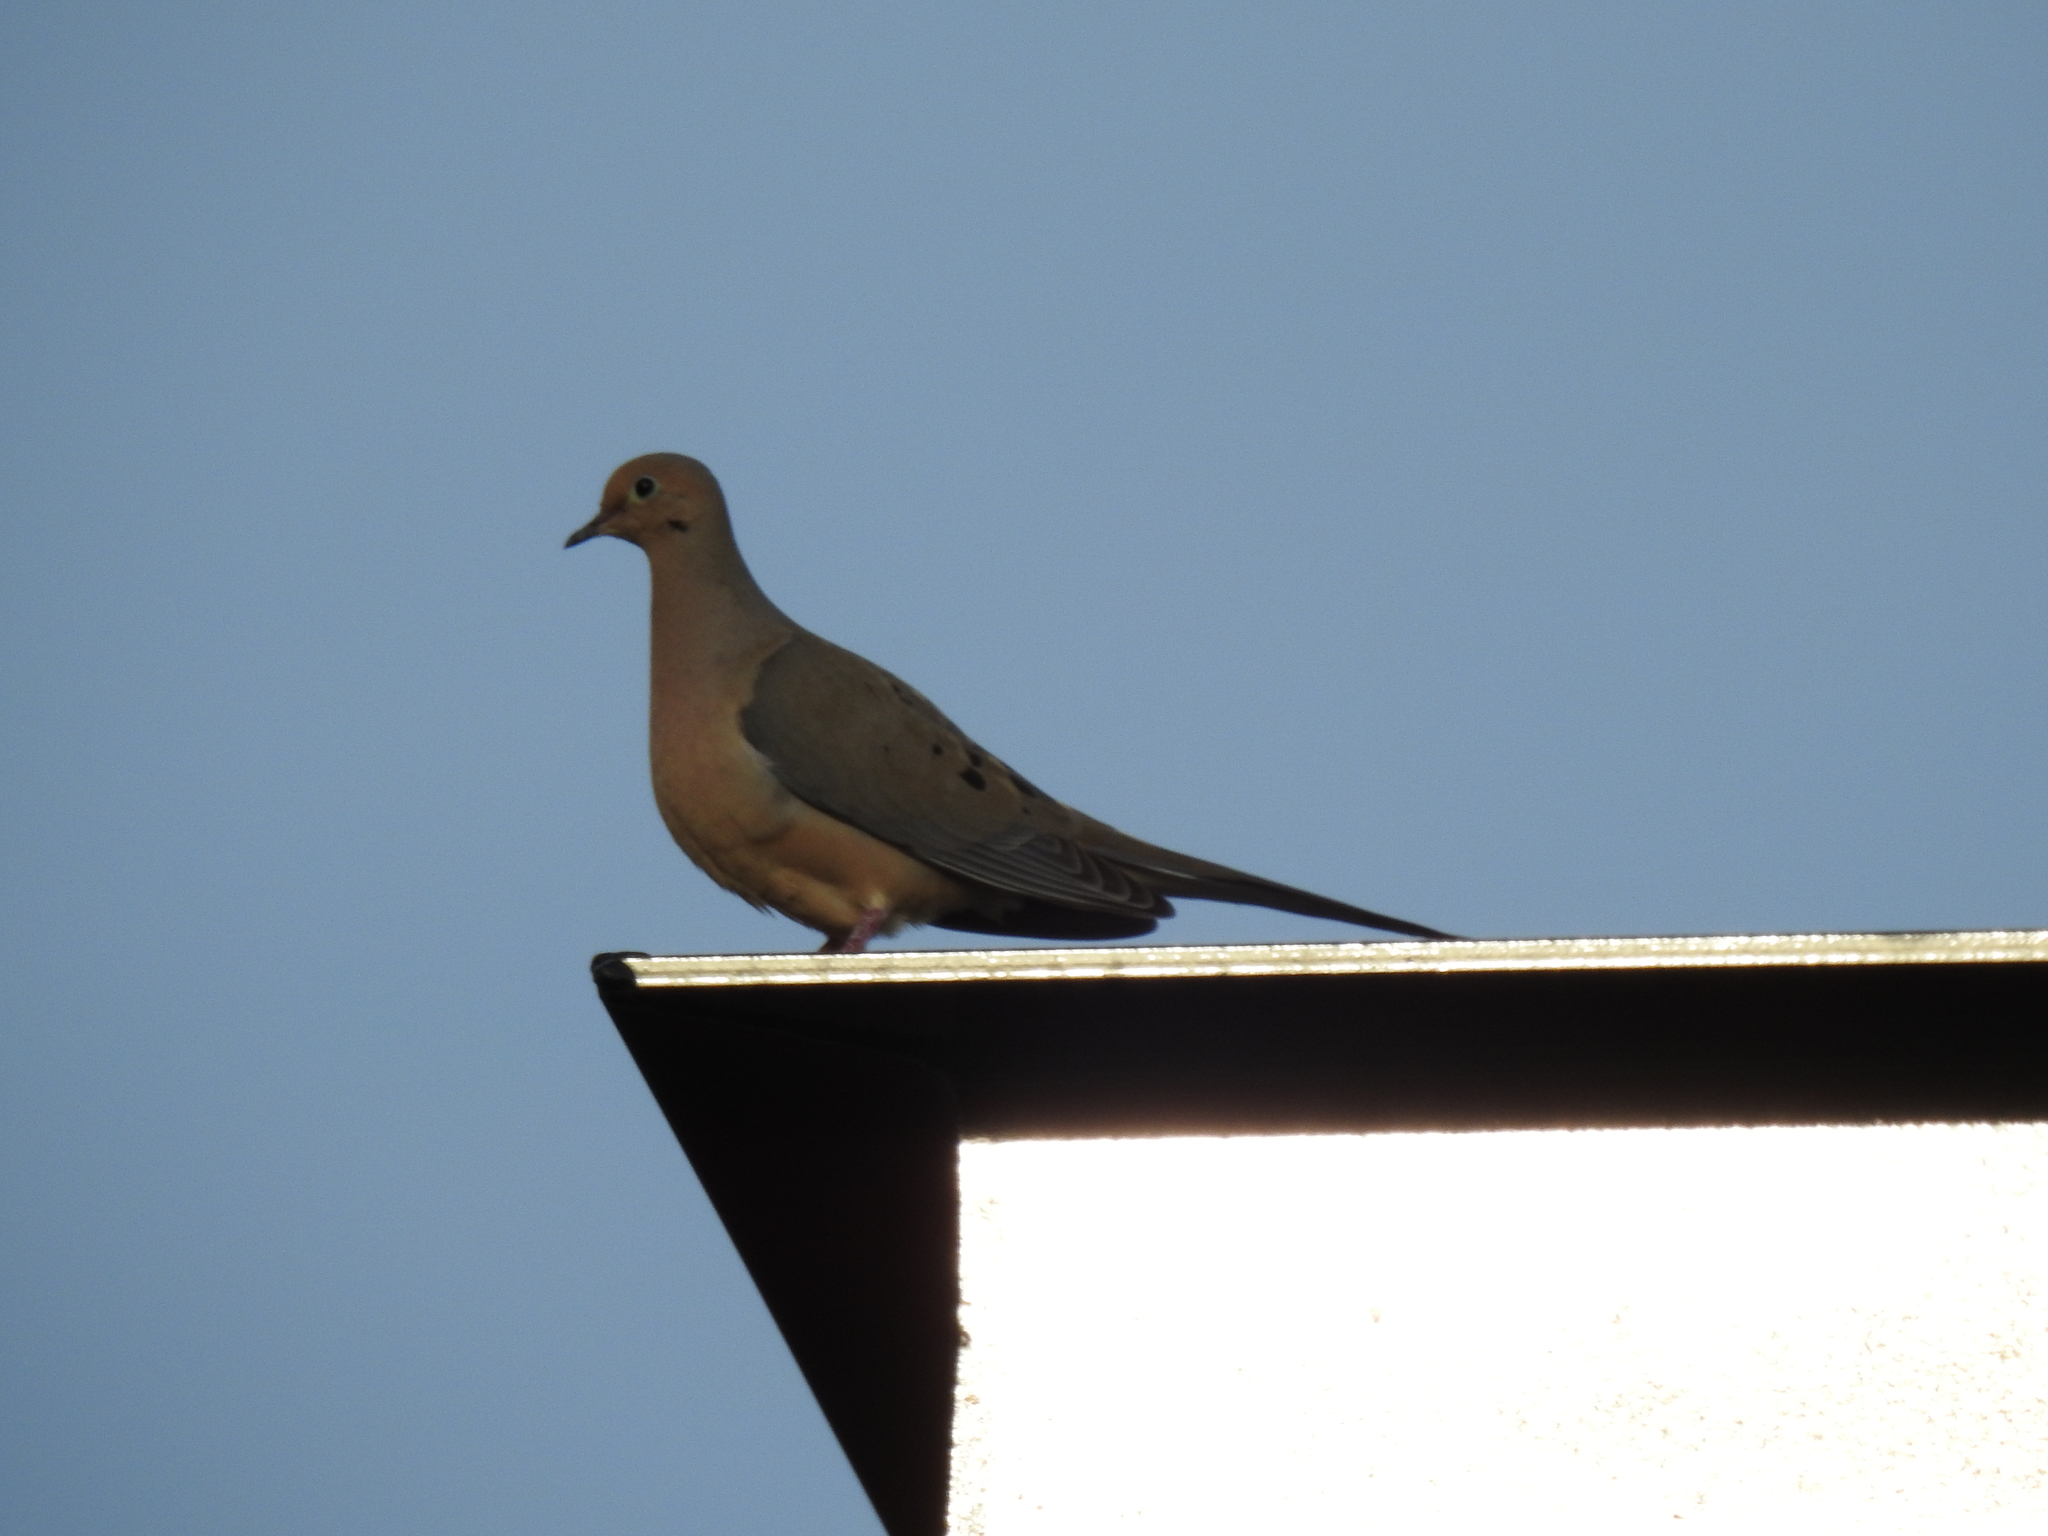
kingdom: Animalia
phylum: Chordata
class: Aves
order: Columbiformes
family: Columbidae
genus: Zenaida
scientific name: Zenaida macroura
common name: Mourning dove
